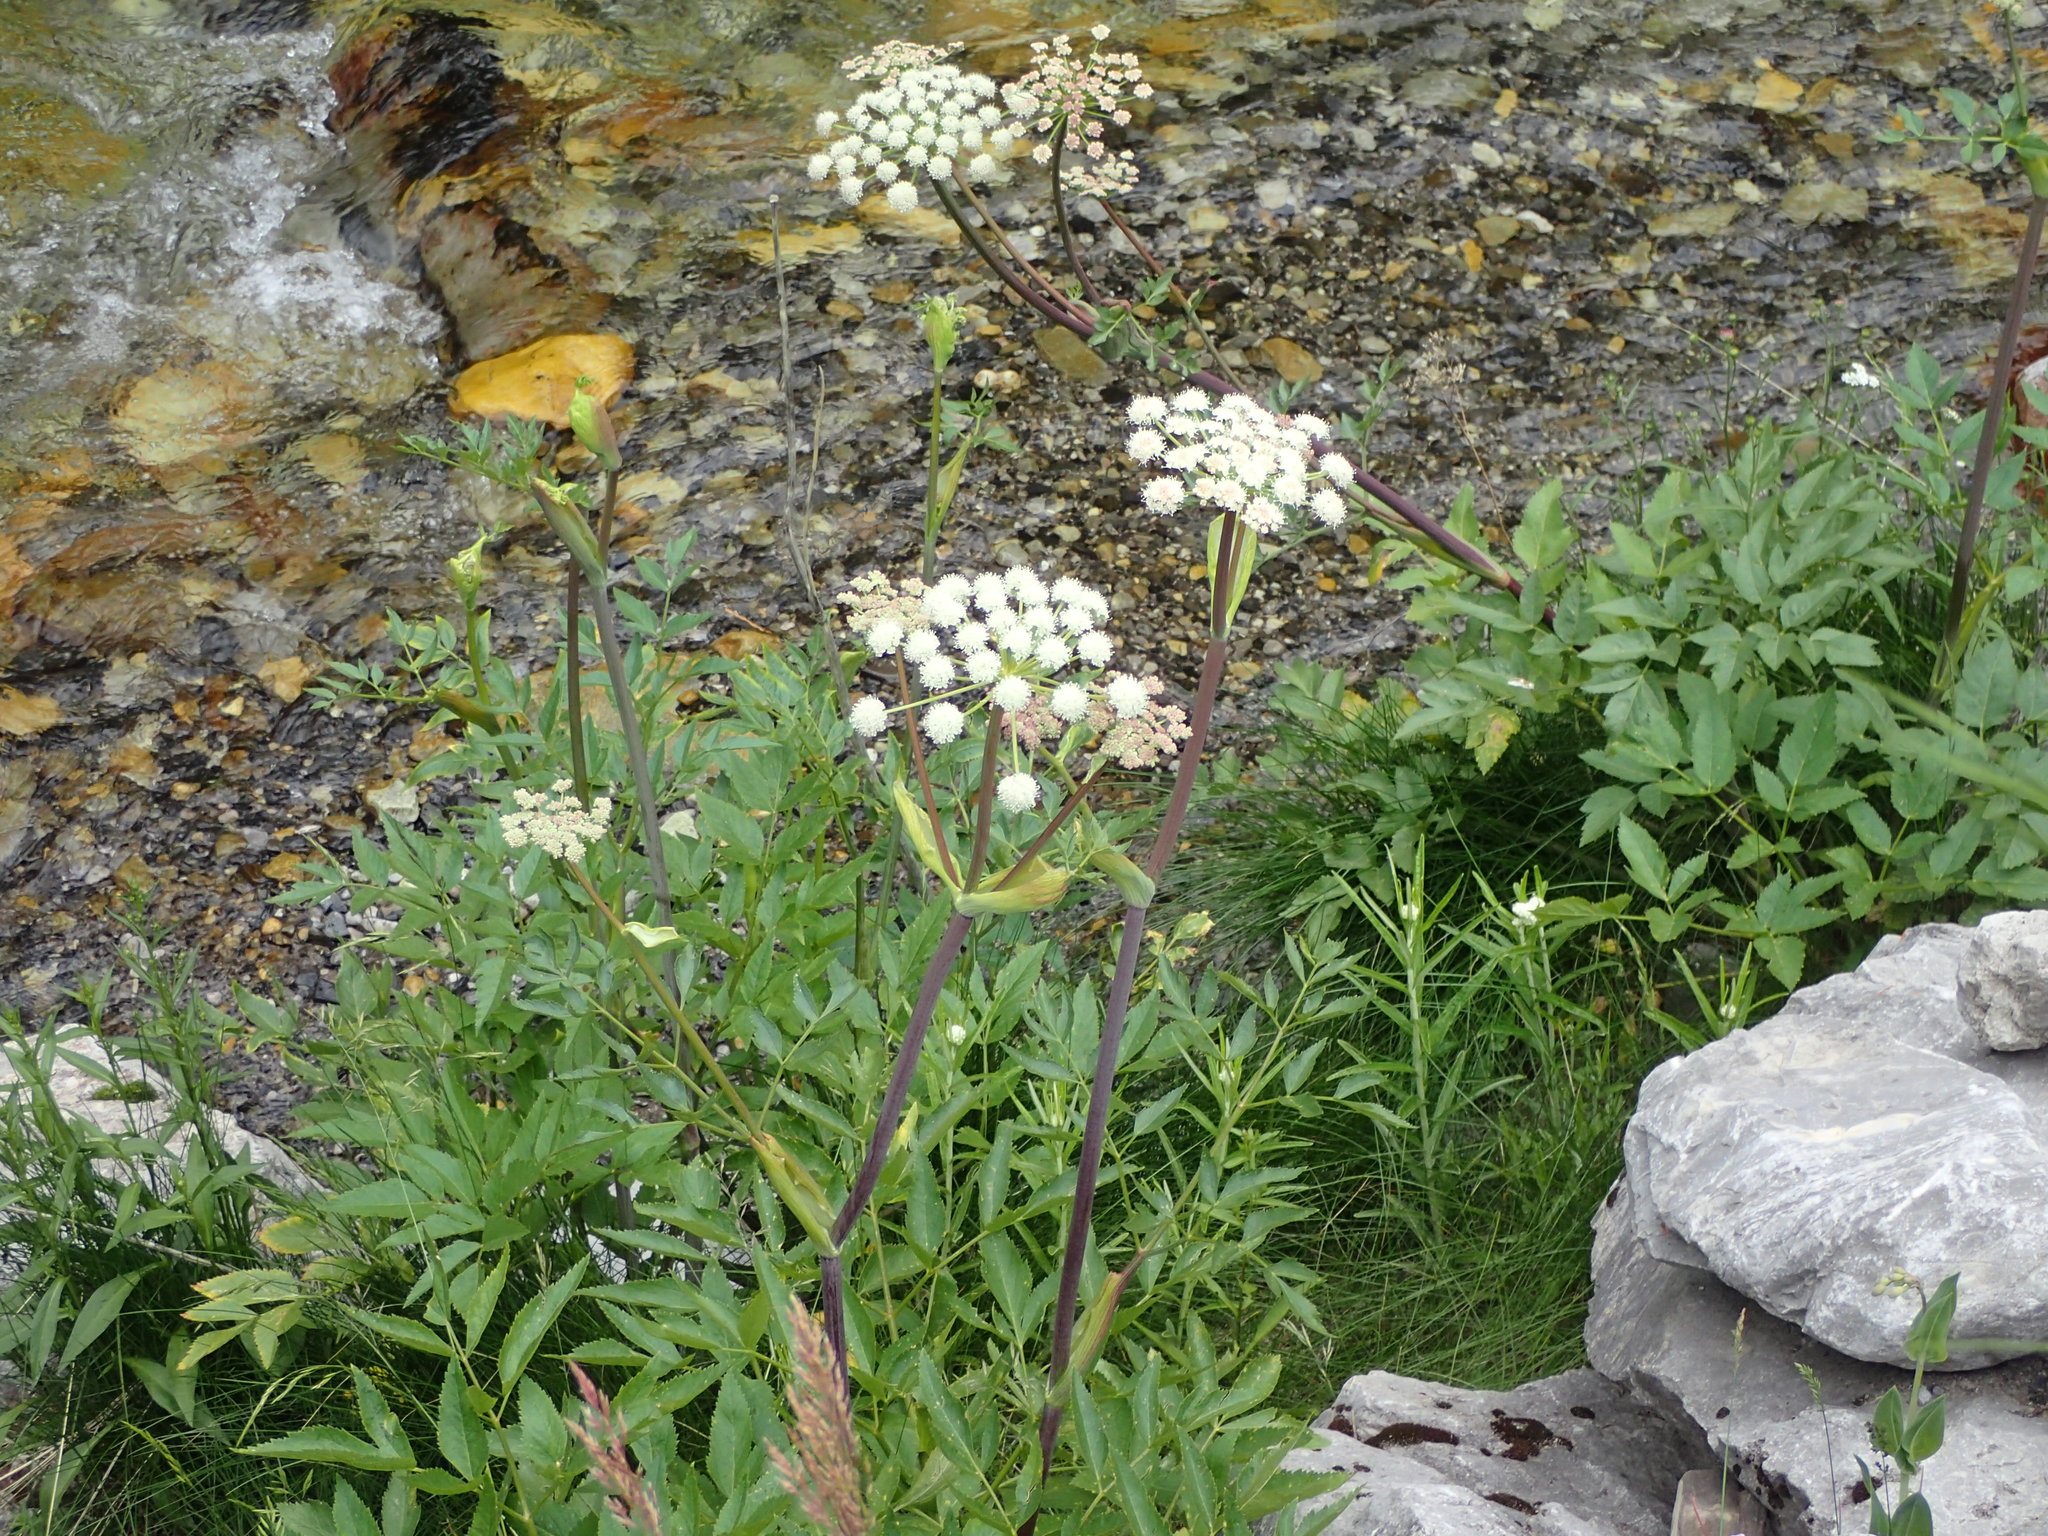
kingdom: Plantae
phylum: Tracheophyta
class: Magnoliopsida
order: Apiales
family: Apiaceae
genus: Angelica
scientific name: Angelica arguta
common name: Lyall's angelica
